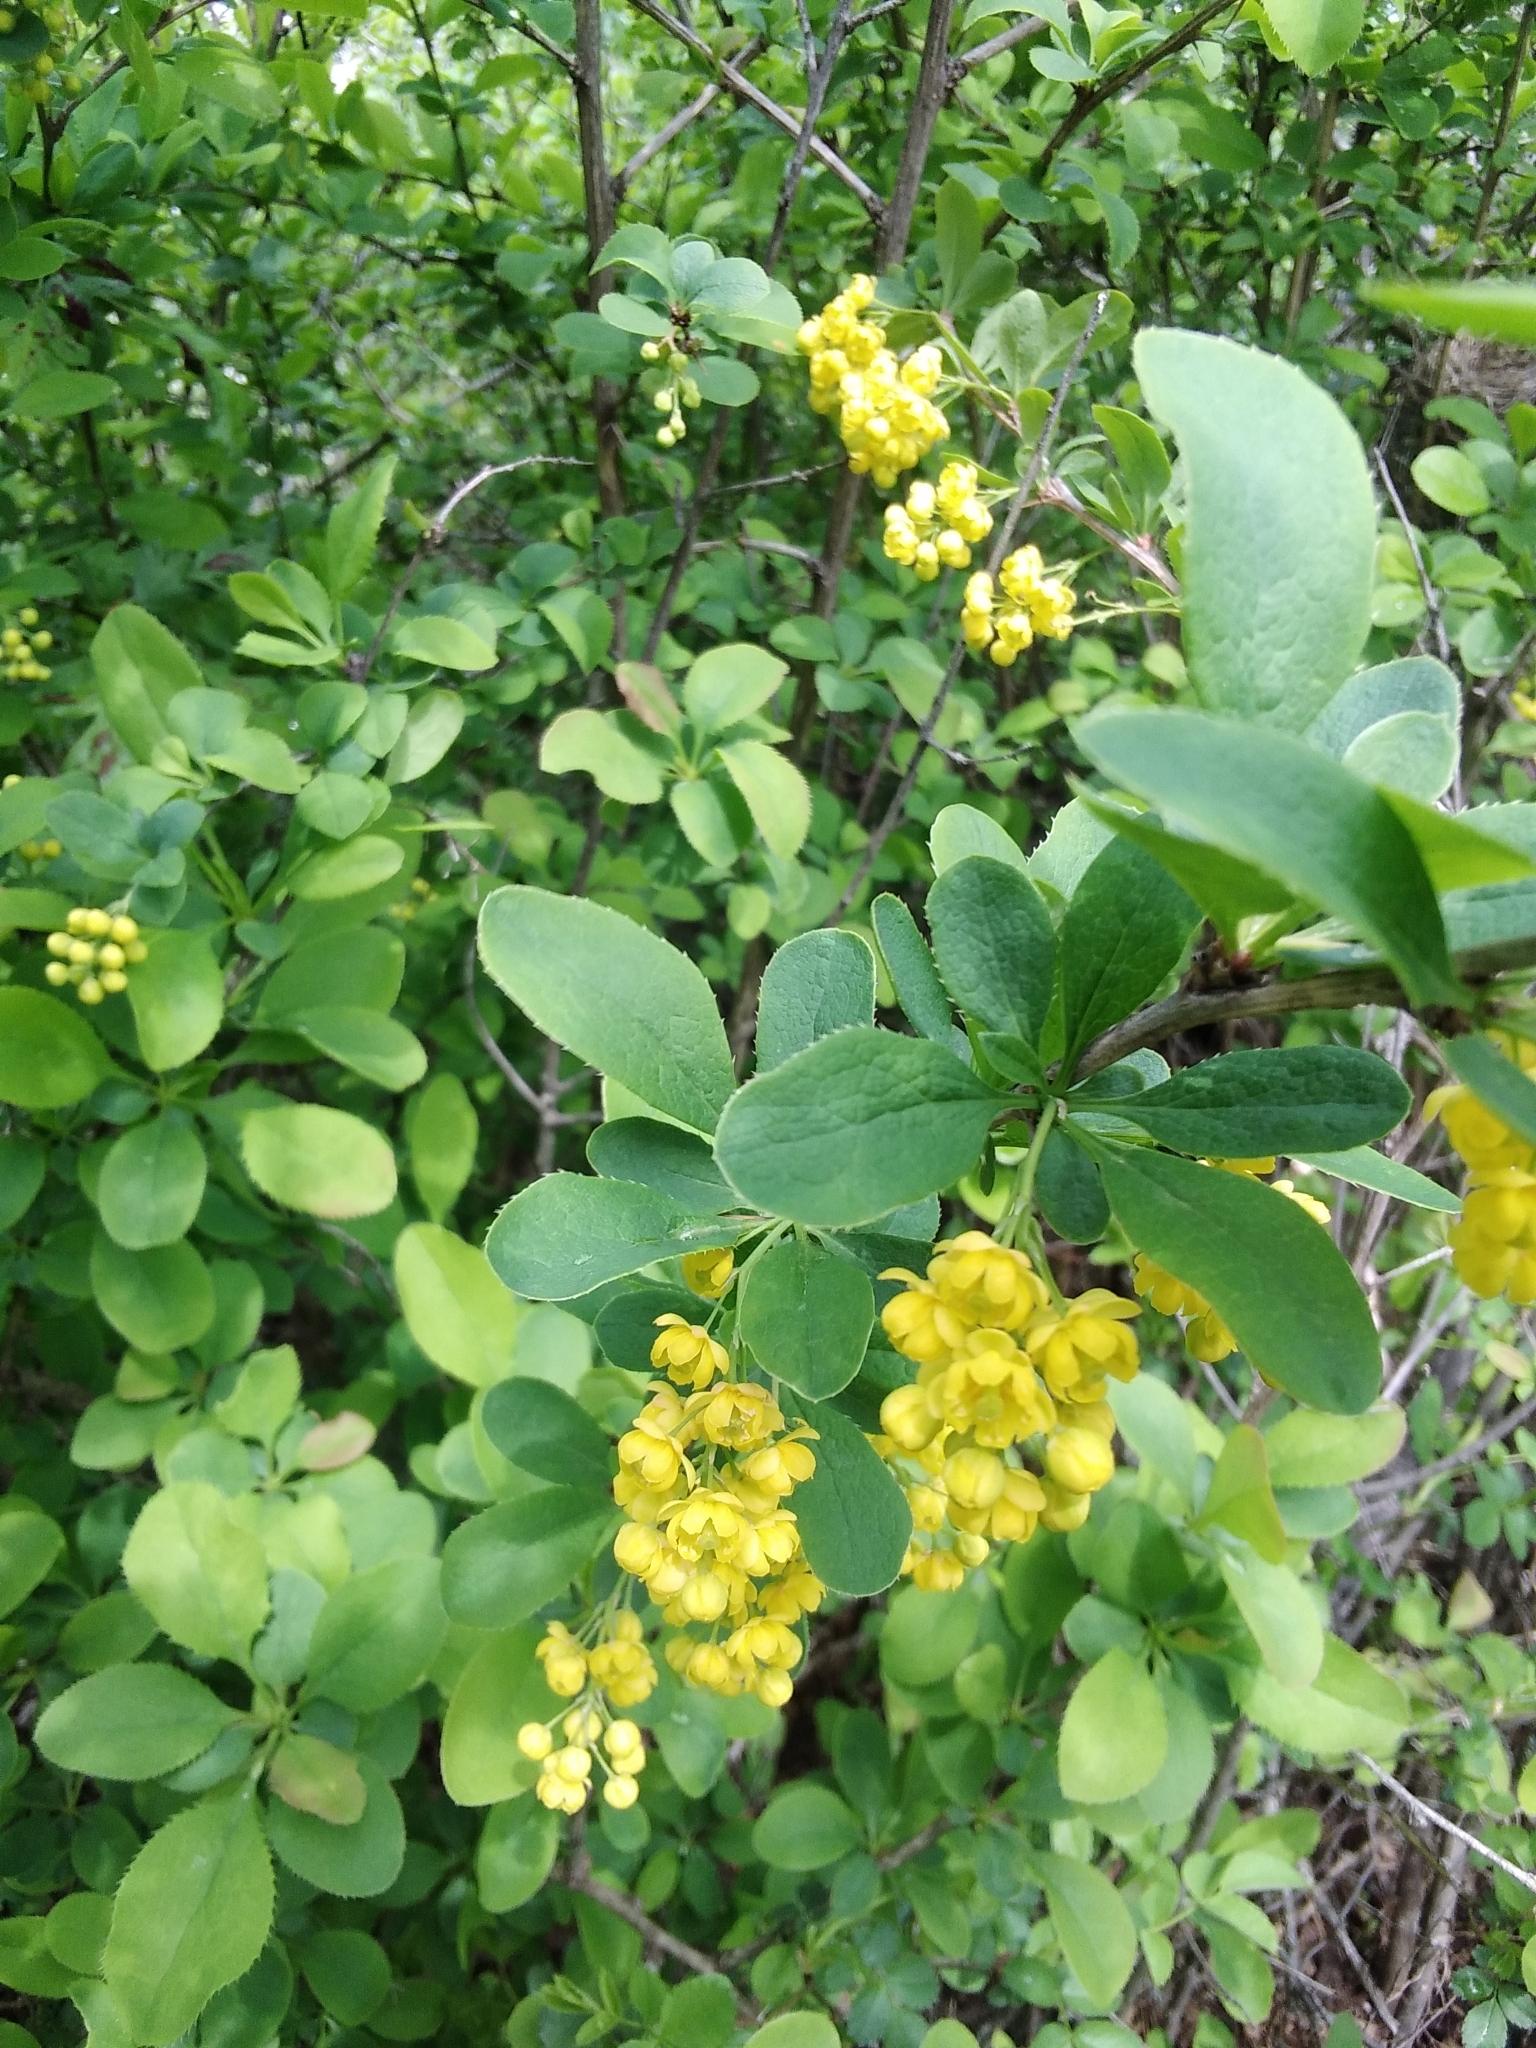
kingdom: Plantae
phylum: Tracheophyta
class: Magnoliopsida
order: Ranunculales
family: Berberidaceae
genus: Berberis
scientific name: Berberis vulgaris
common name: Barberry
